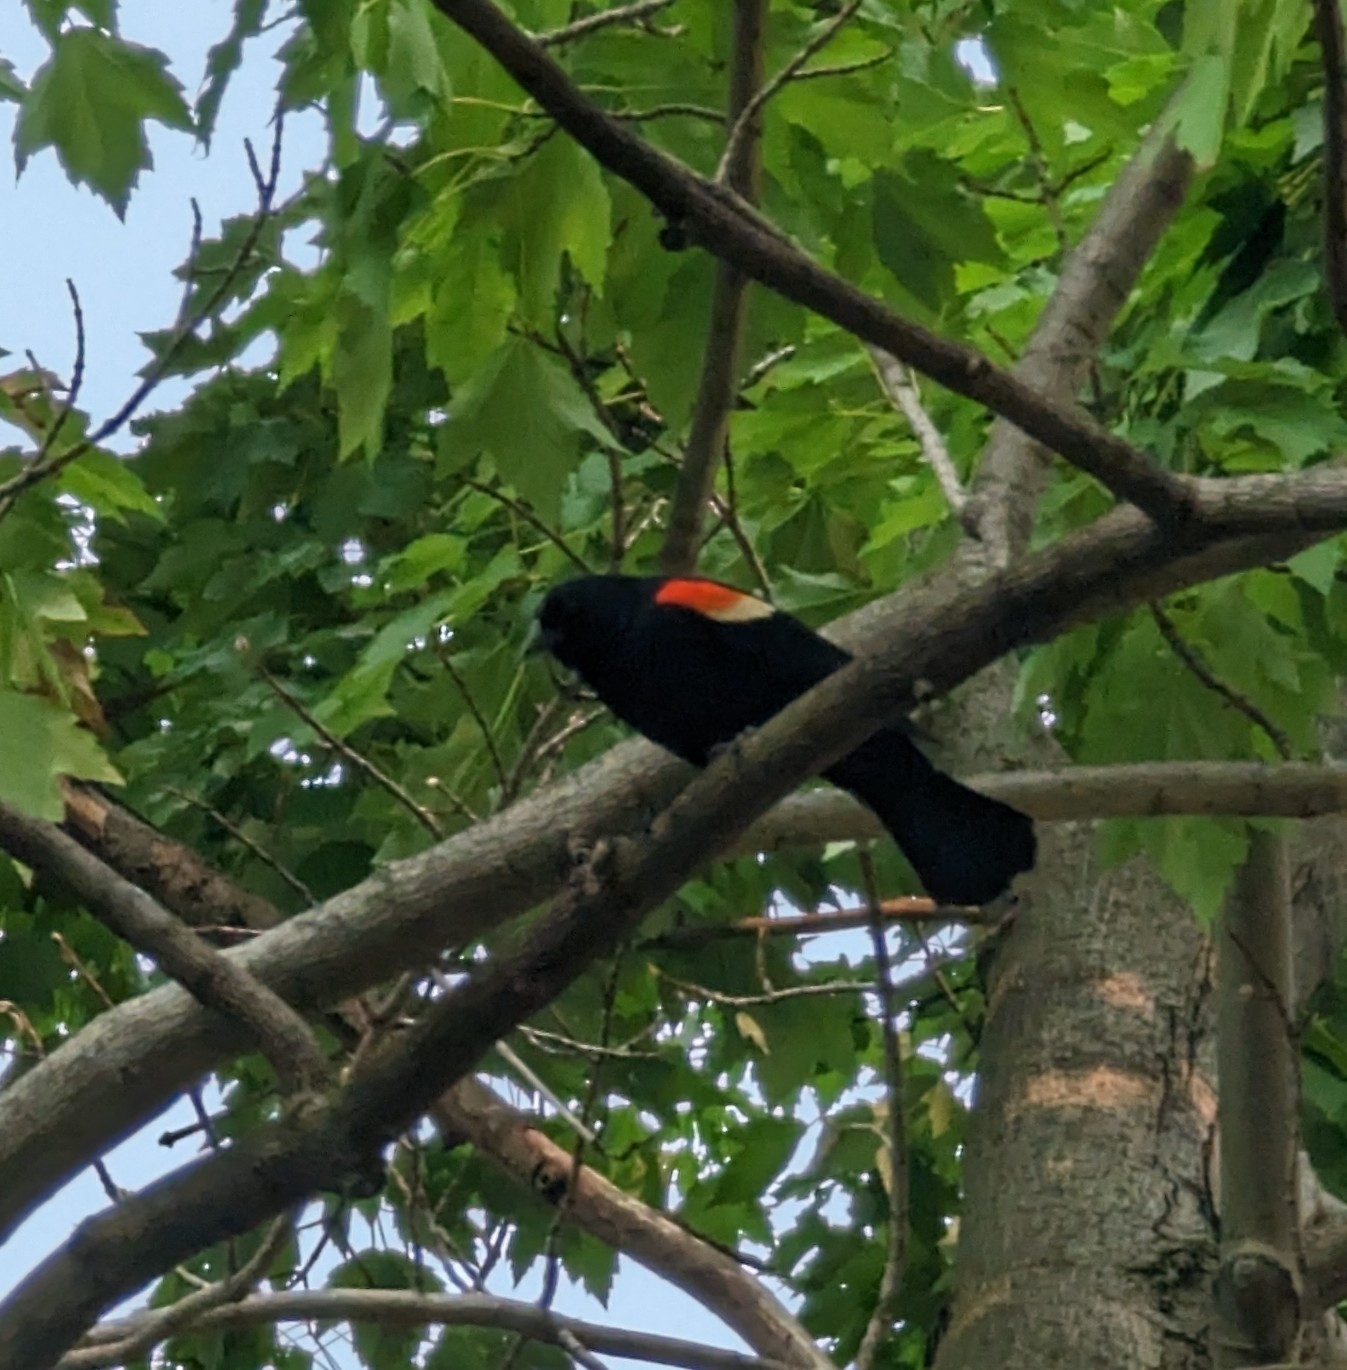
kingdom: Animalia
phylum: Chordata
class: Aves
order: Passeriformes
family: Icteridae
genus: Agelaius
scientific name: Agelaius phoeniceus
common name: Red-winged blackbird
